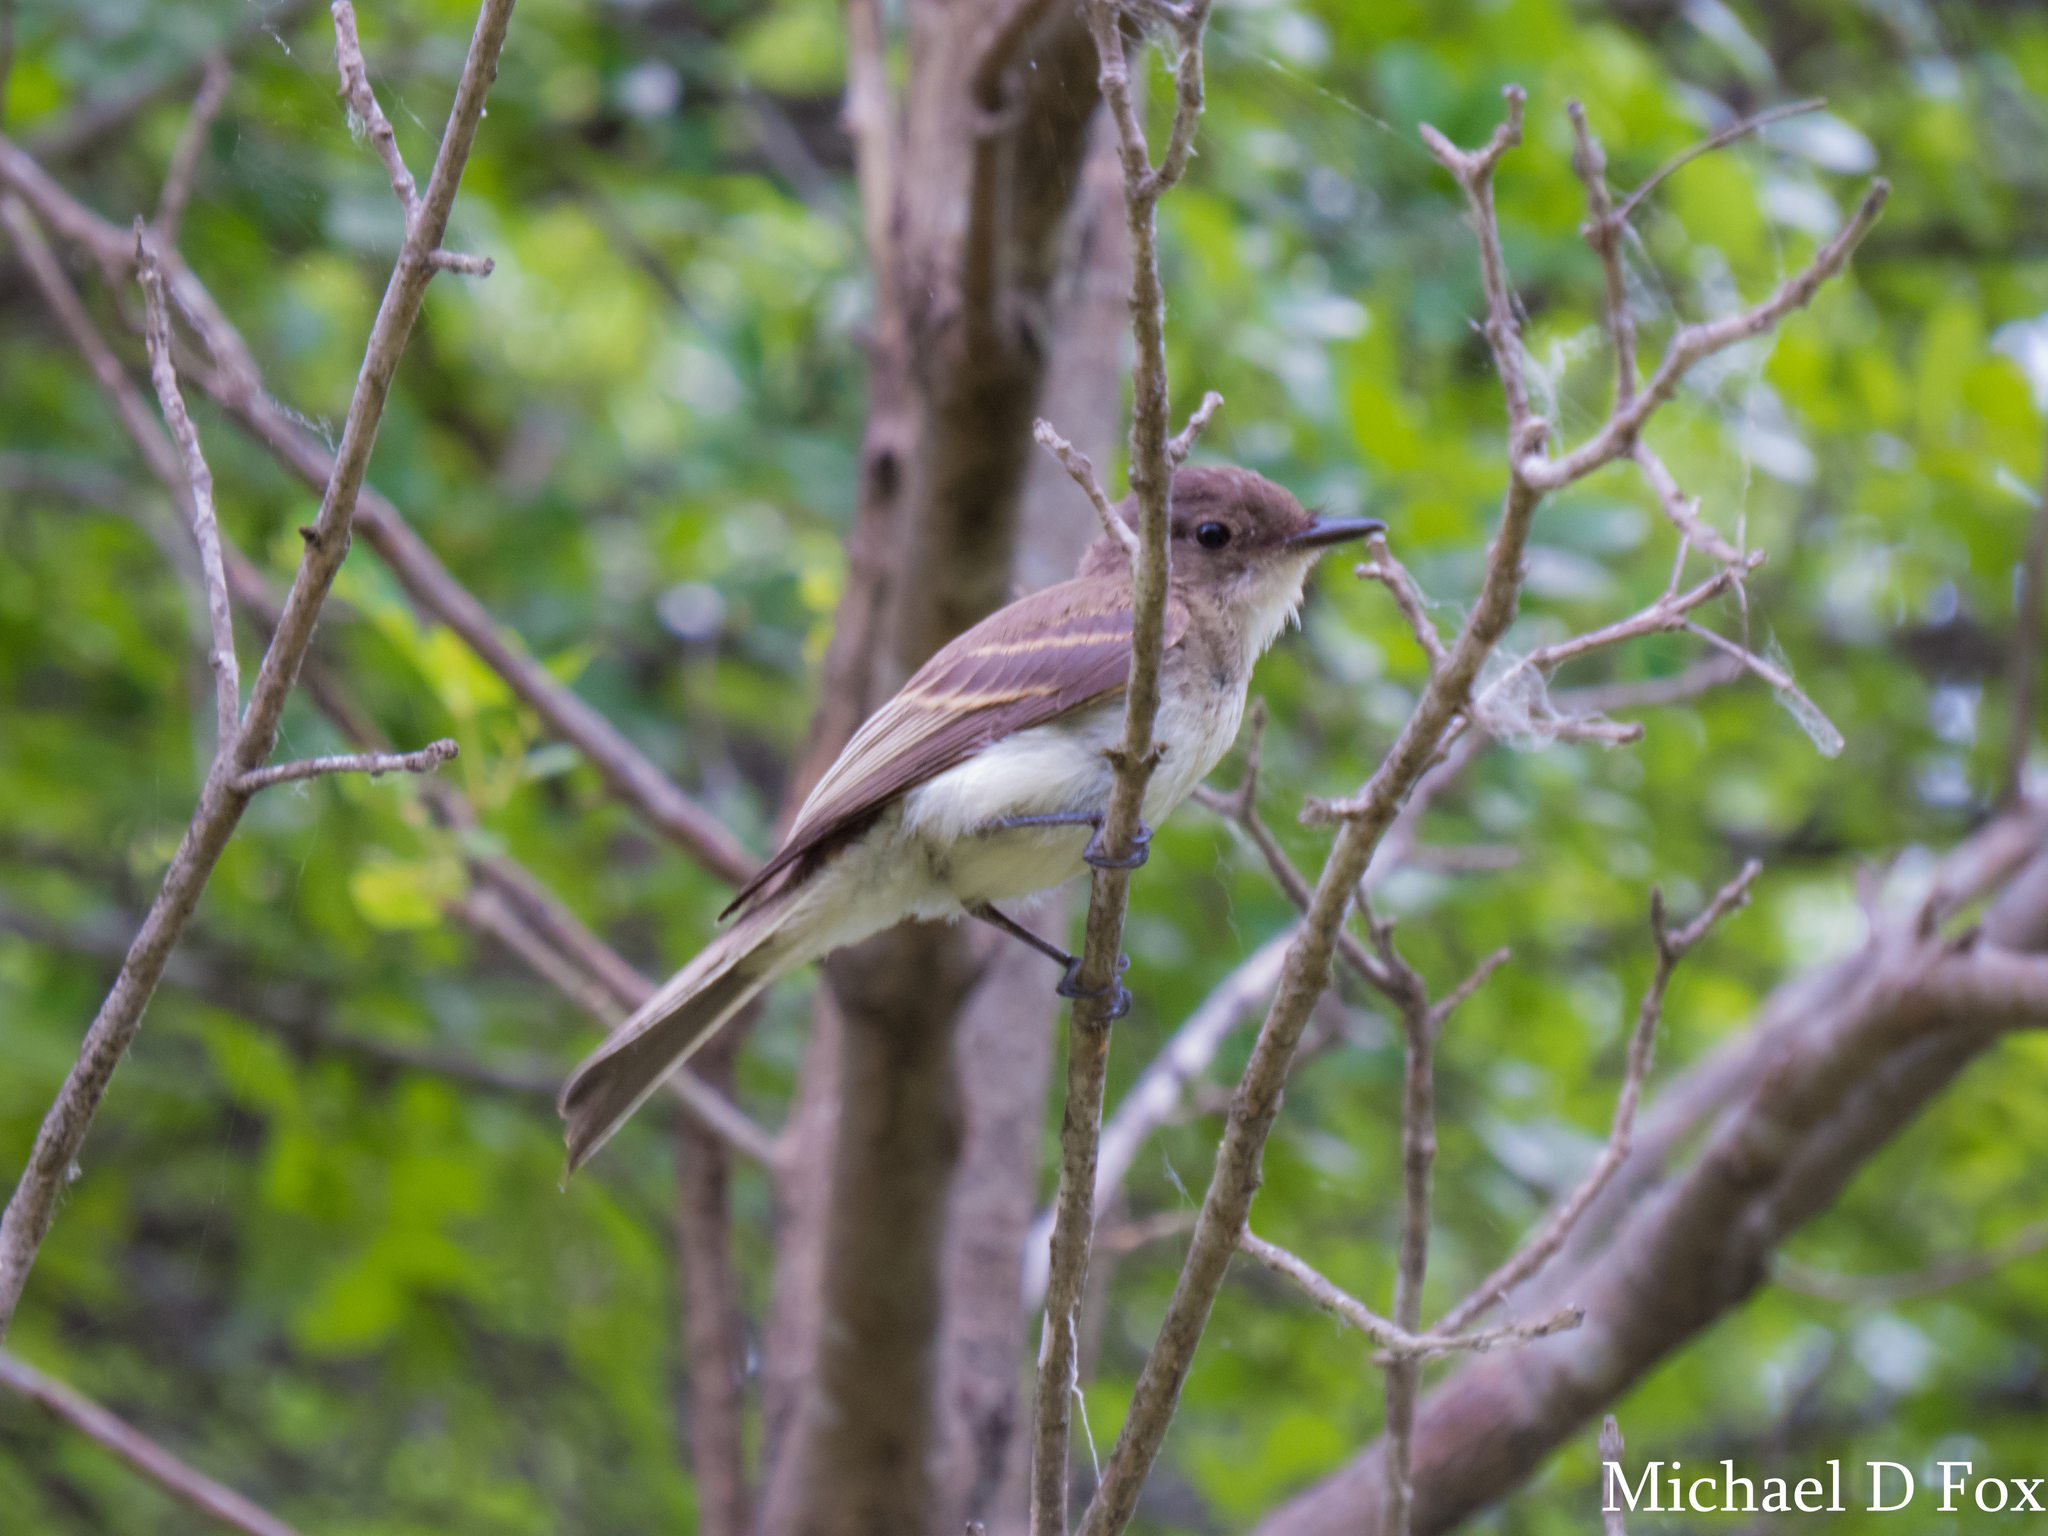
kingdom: Animalia
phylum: Chordata
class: Aves
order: Passeriformes
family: Tyrannidae
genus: Sayornis
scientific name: Sayornis phoebe
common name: Eastern phoebe
